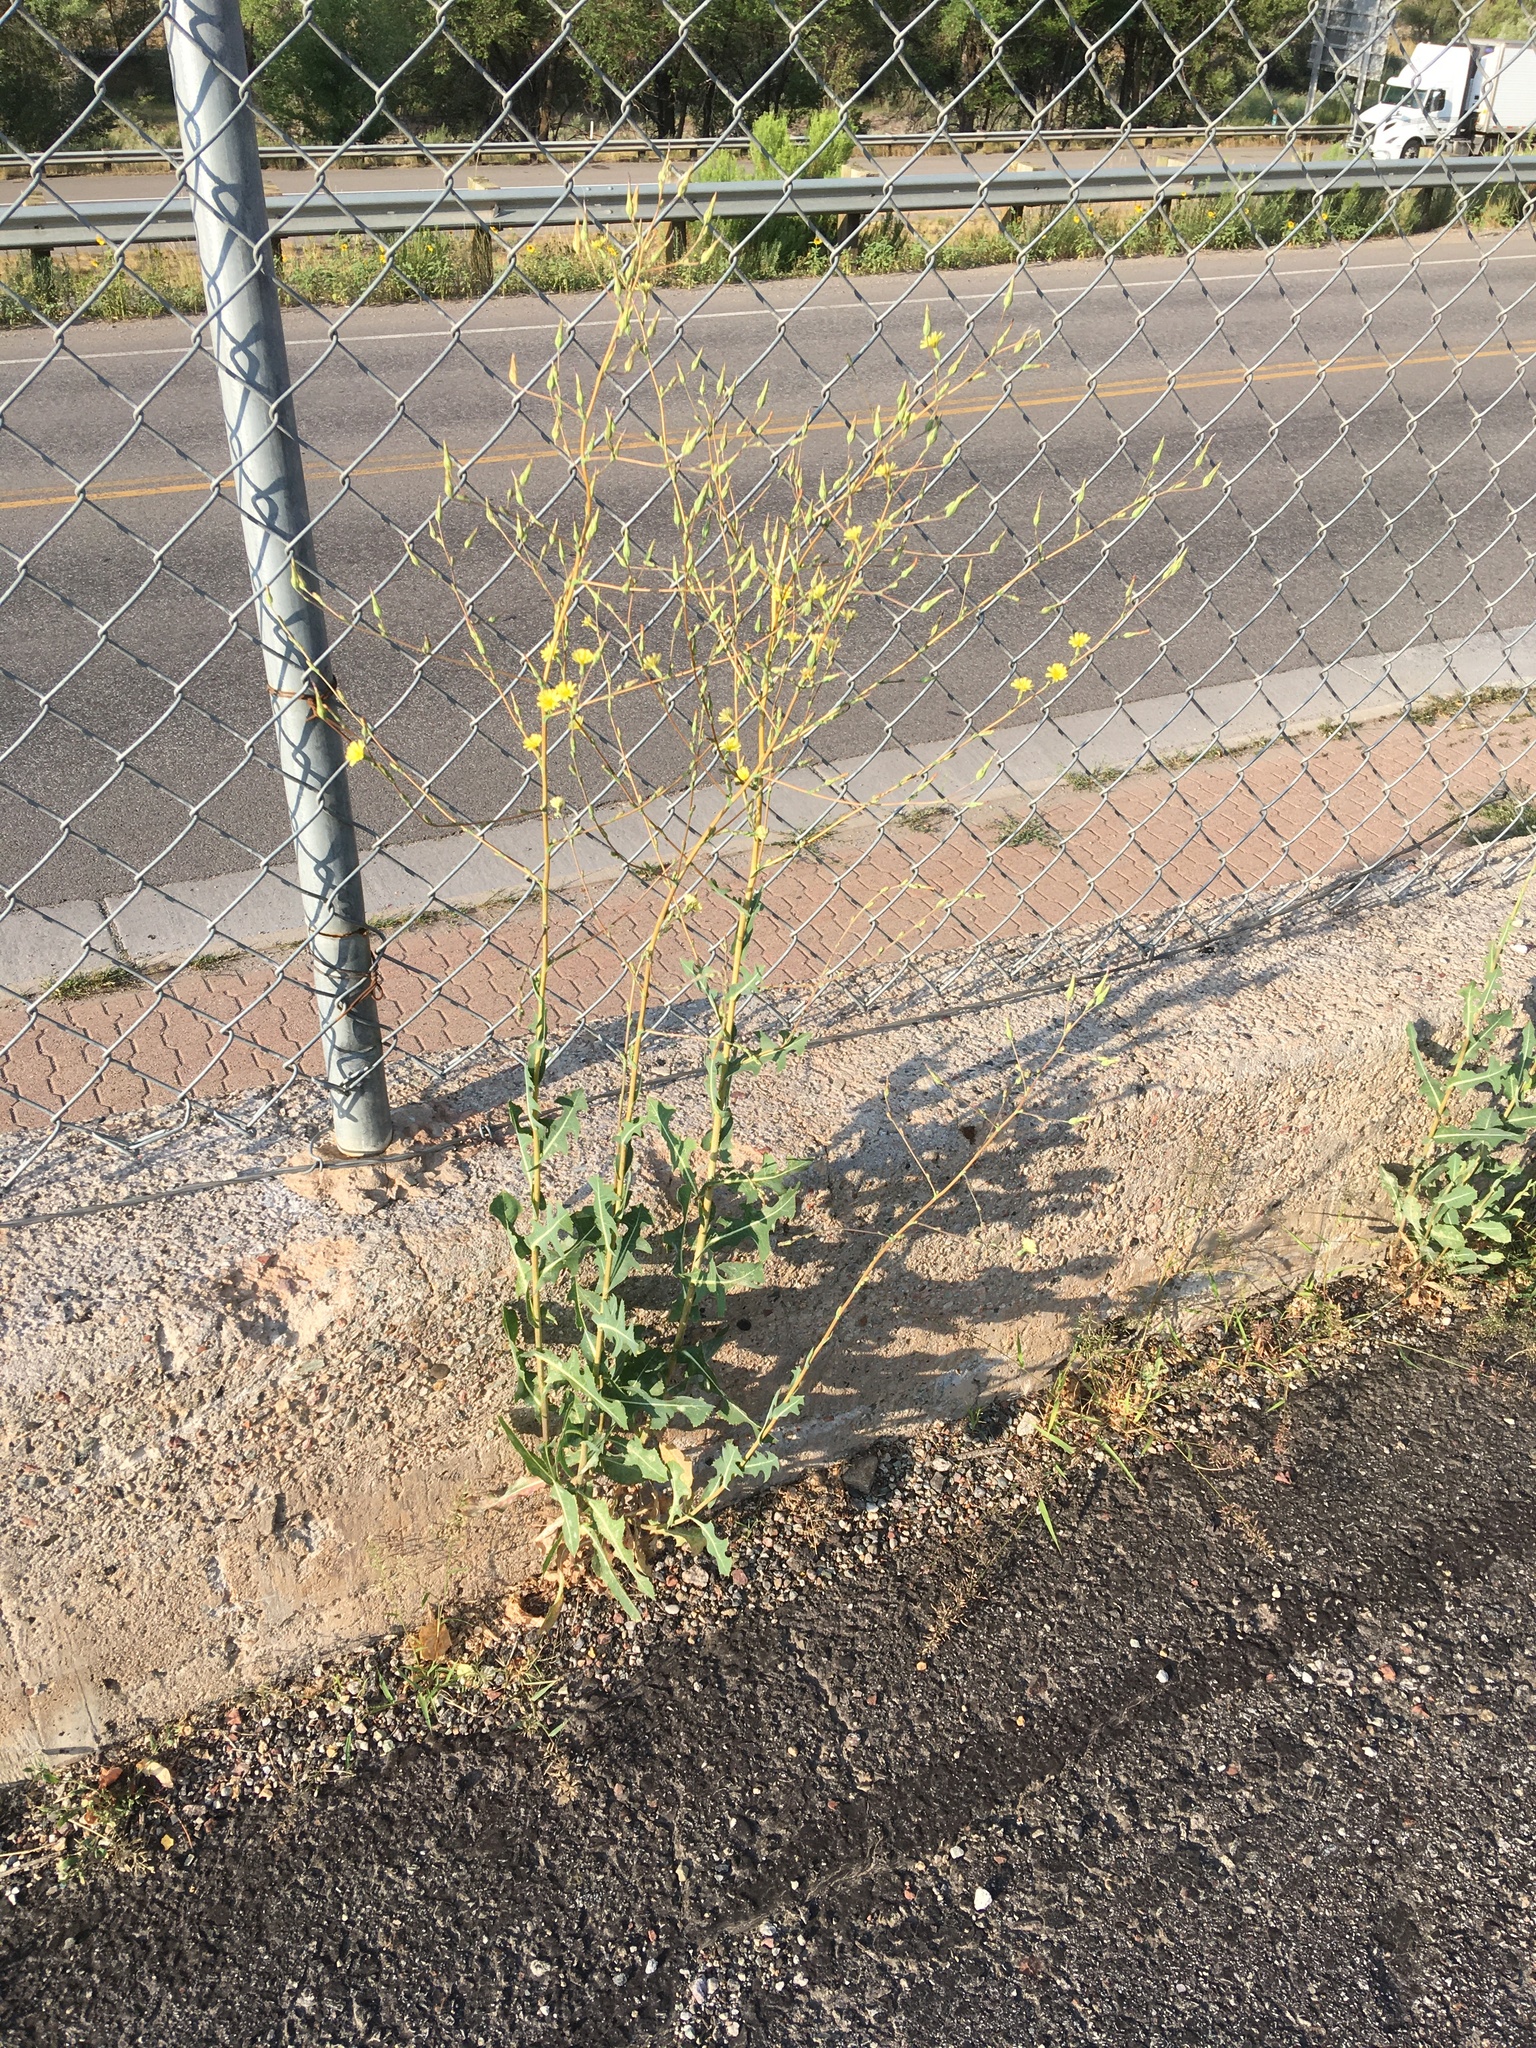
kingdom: Plantae
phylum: Tracheophyta
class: Magnoliopsida
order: Asterales
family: Asteraceae
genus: Lactuca
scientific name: Lactuca serriola
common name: Prickly lettuce
